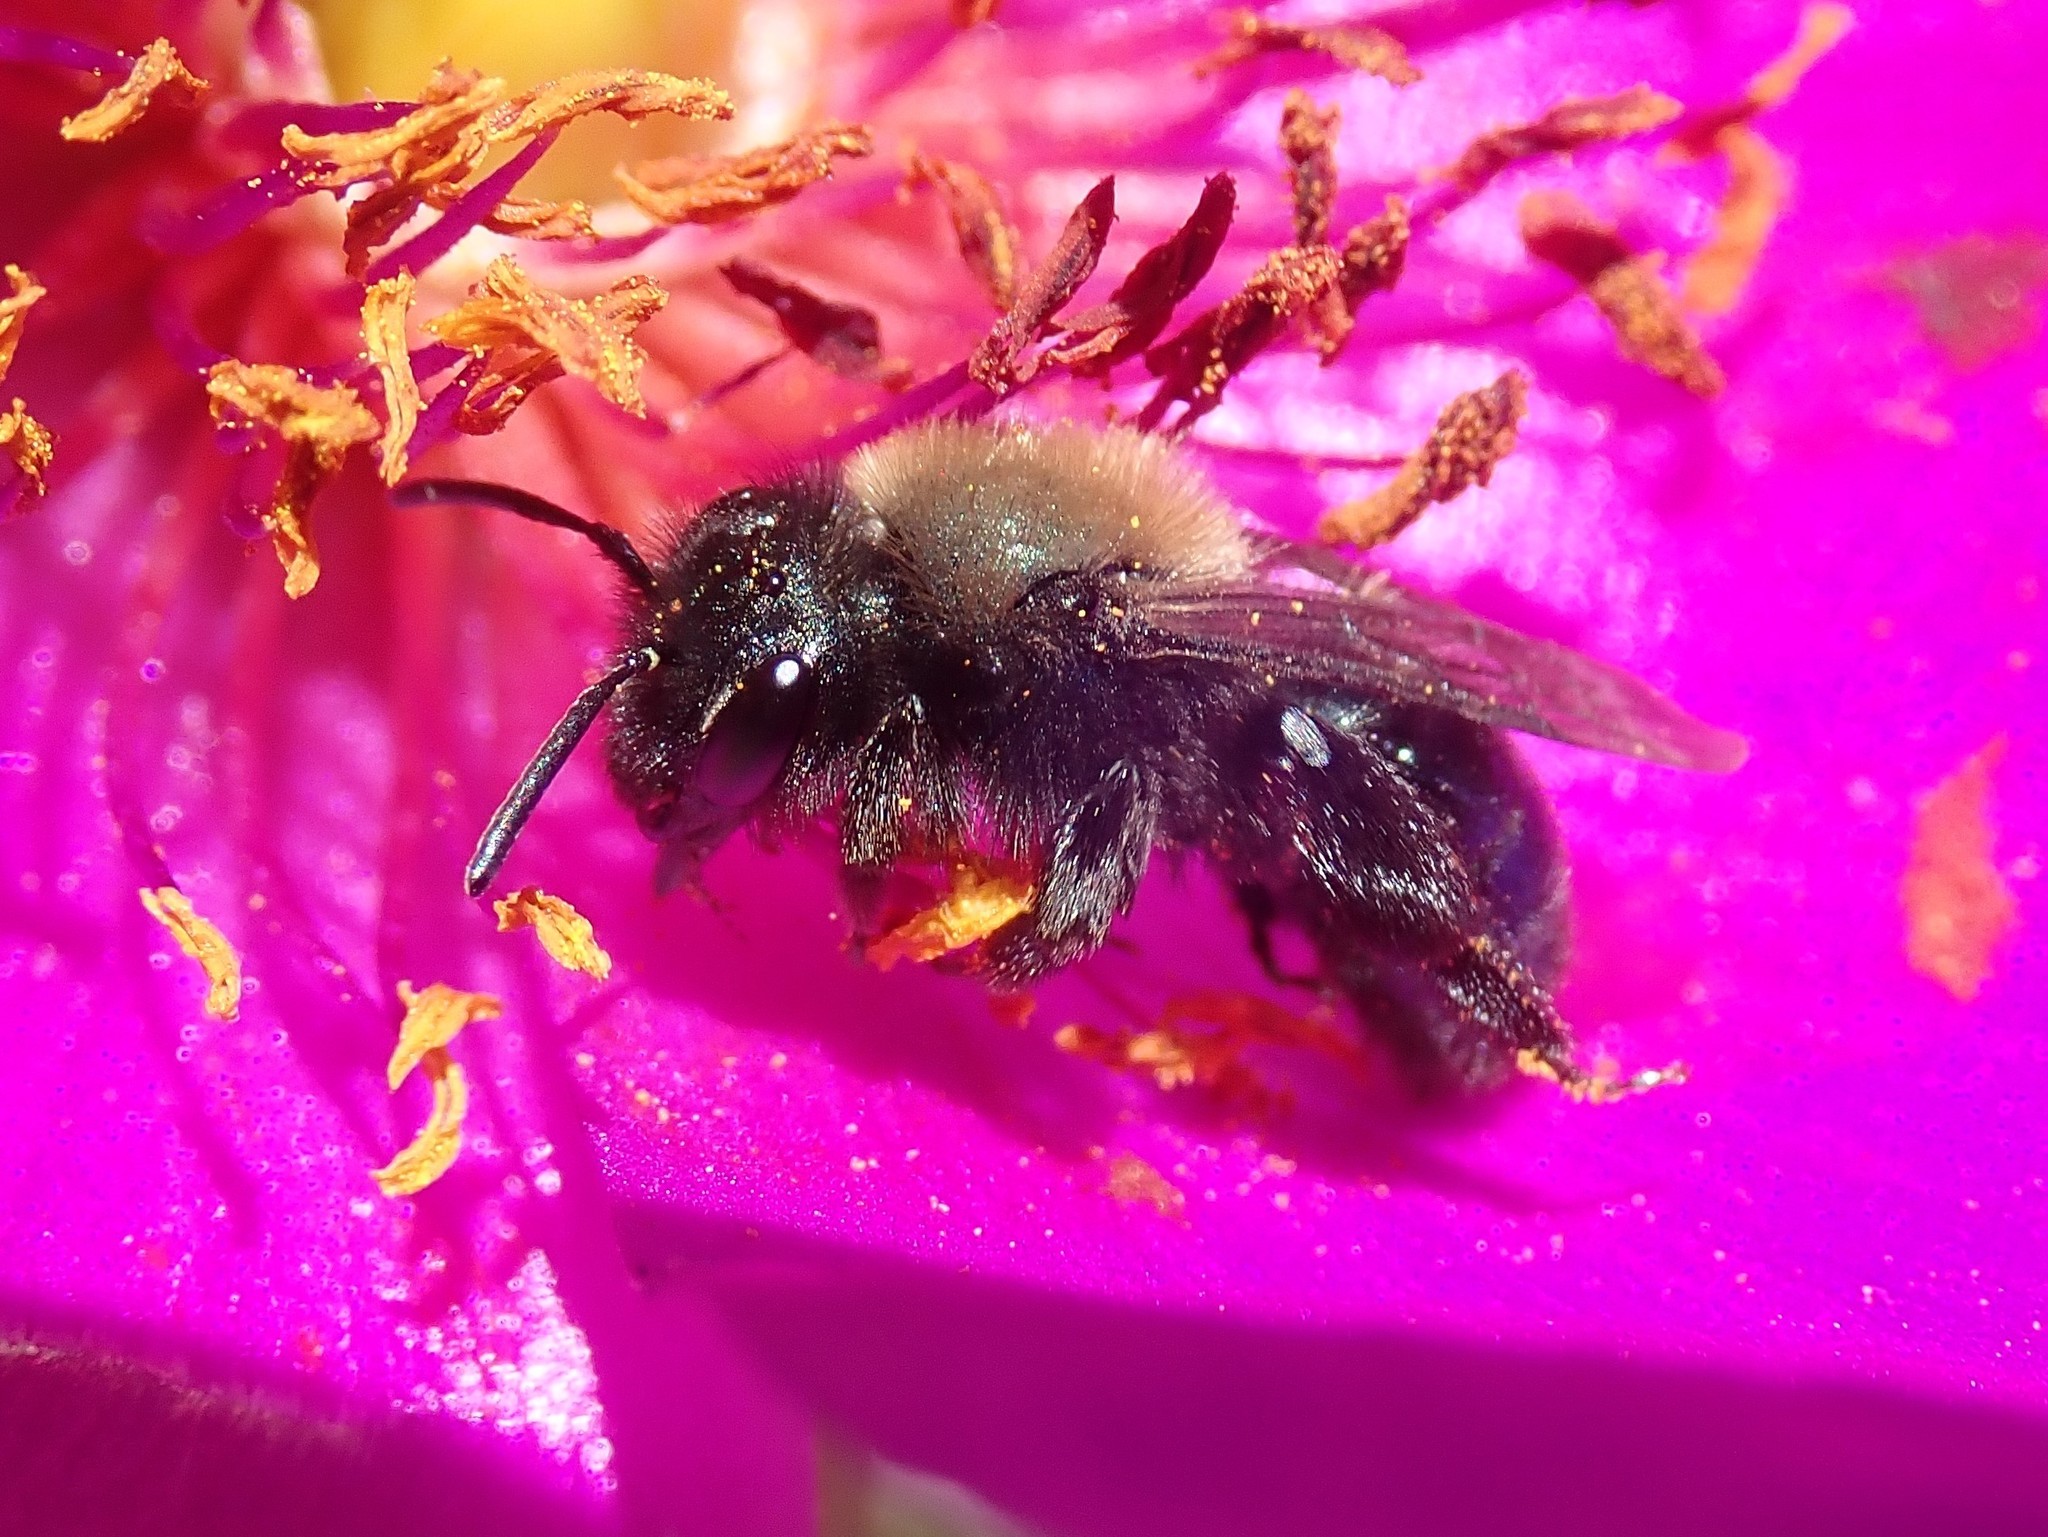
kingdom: Animalia
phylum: Arthropoda
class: Insecta
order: Hymenoptera
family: Andrenidae
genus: Andrena
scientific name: Andrena nigrocaerulea
